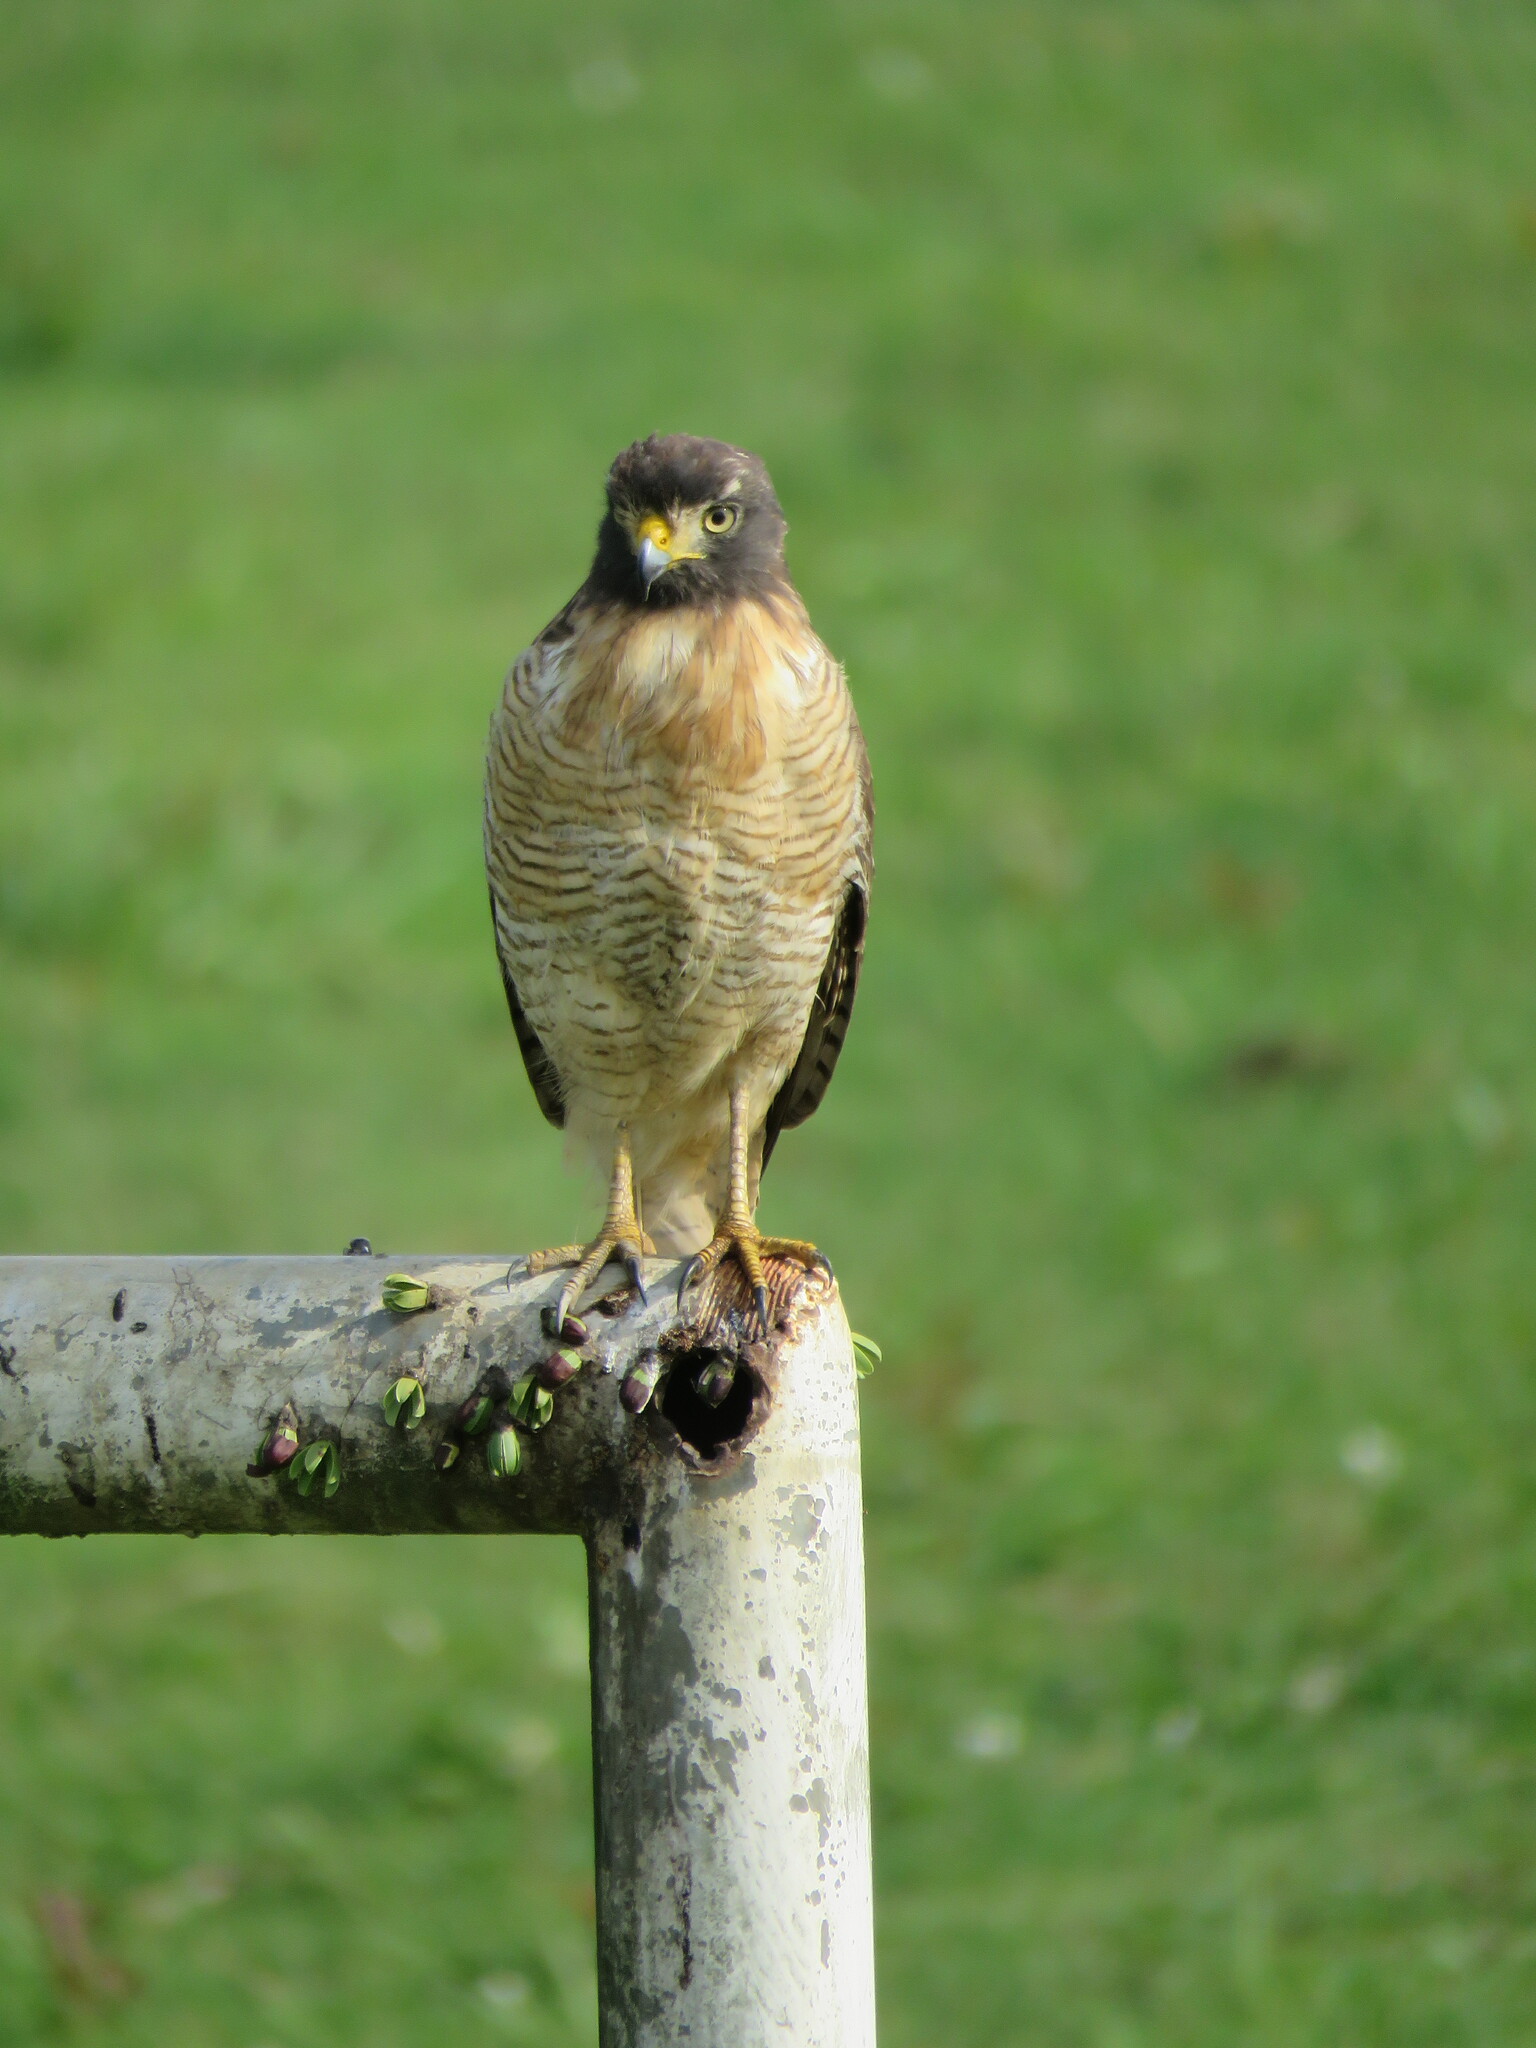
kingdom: Animalia
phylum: Chordata
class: Aves
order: Accipitriformes
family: Accipitridae
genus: Rupornis
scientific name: Rupornis magnirostris
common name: Roadside hawk
